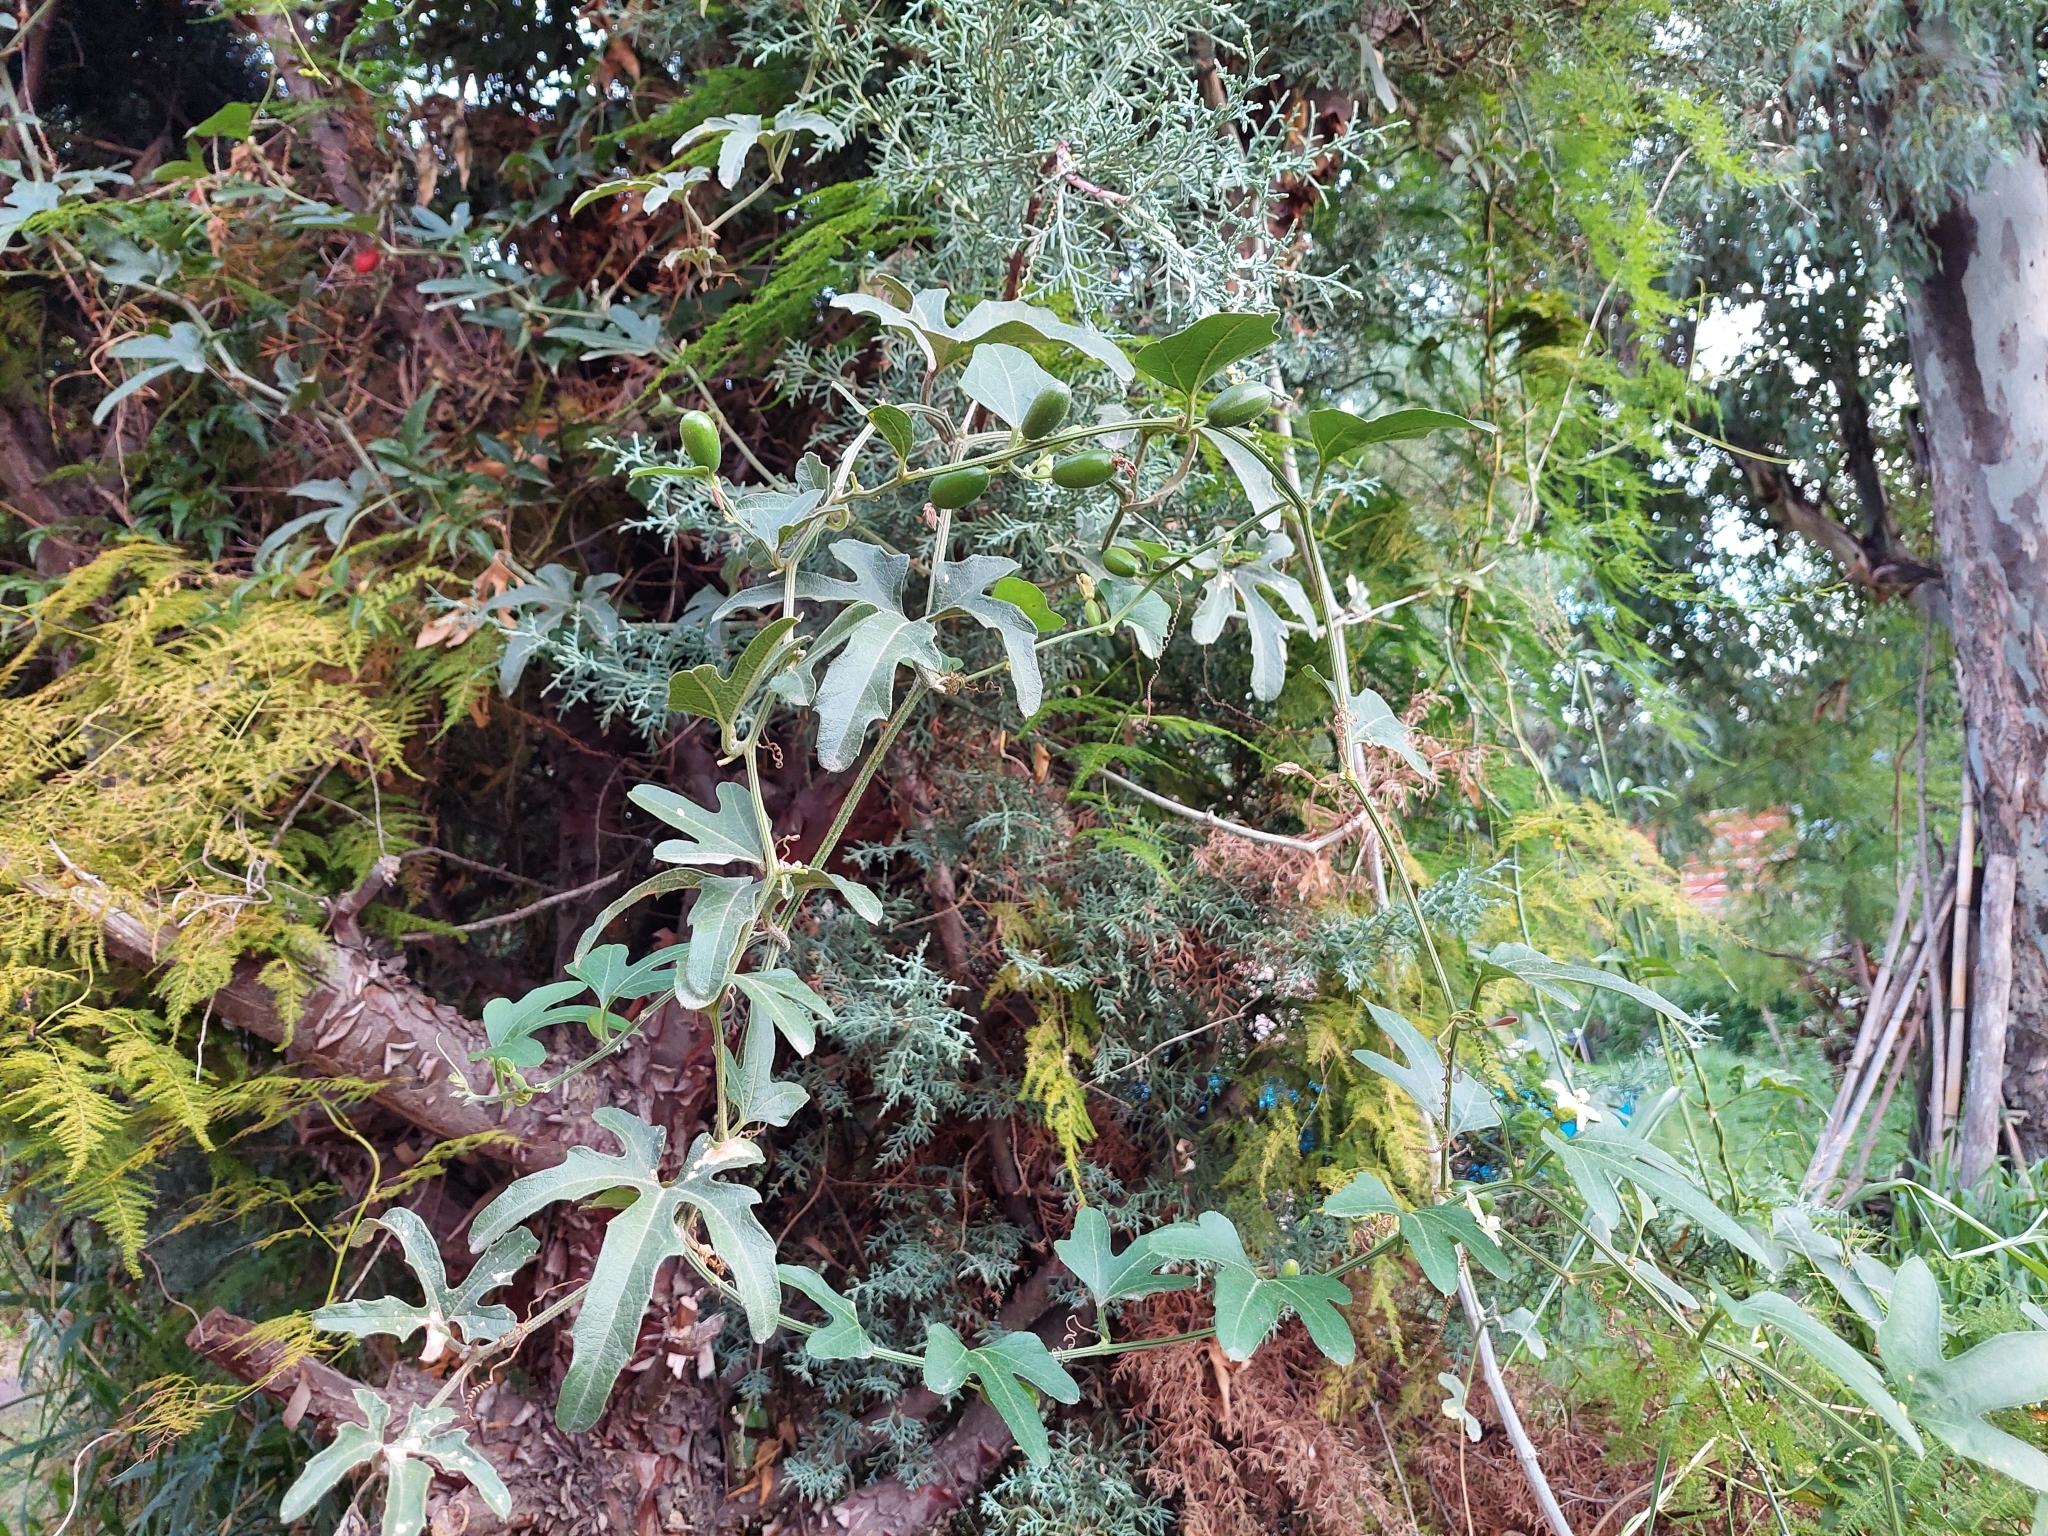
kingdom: Plantae
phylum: Tracheophyta
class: Magnoliopsida
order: Cucurbitales
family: Cucurbitaceae
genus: Cayaponia
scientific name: Cayaponia podantha
